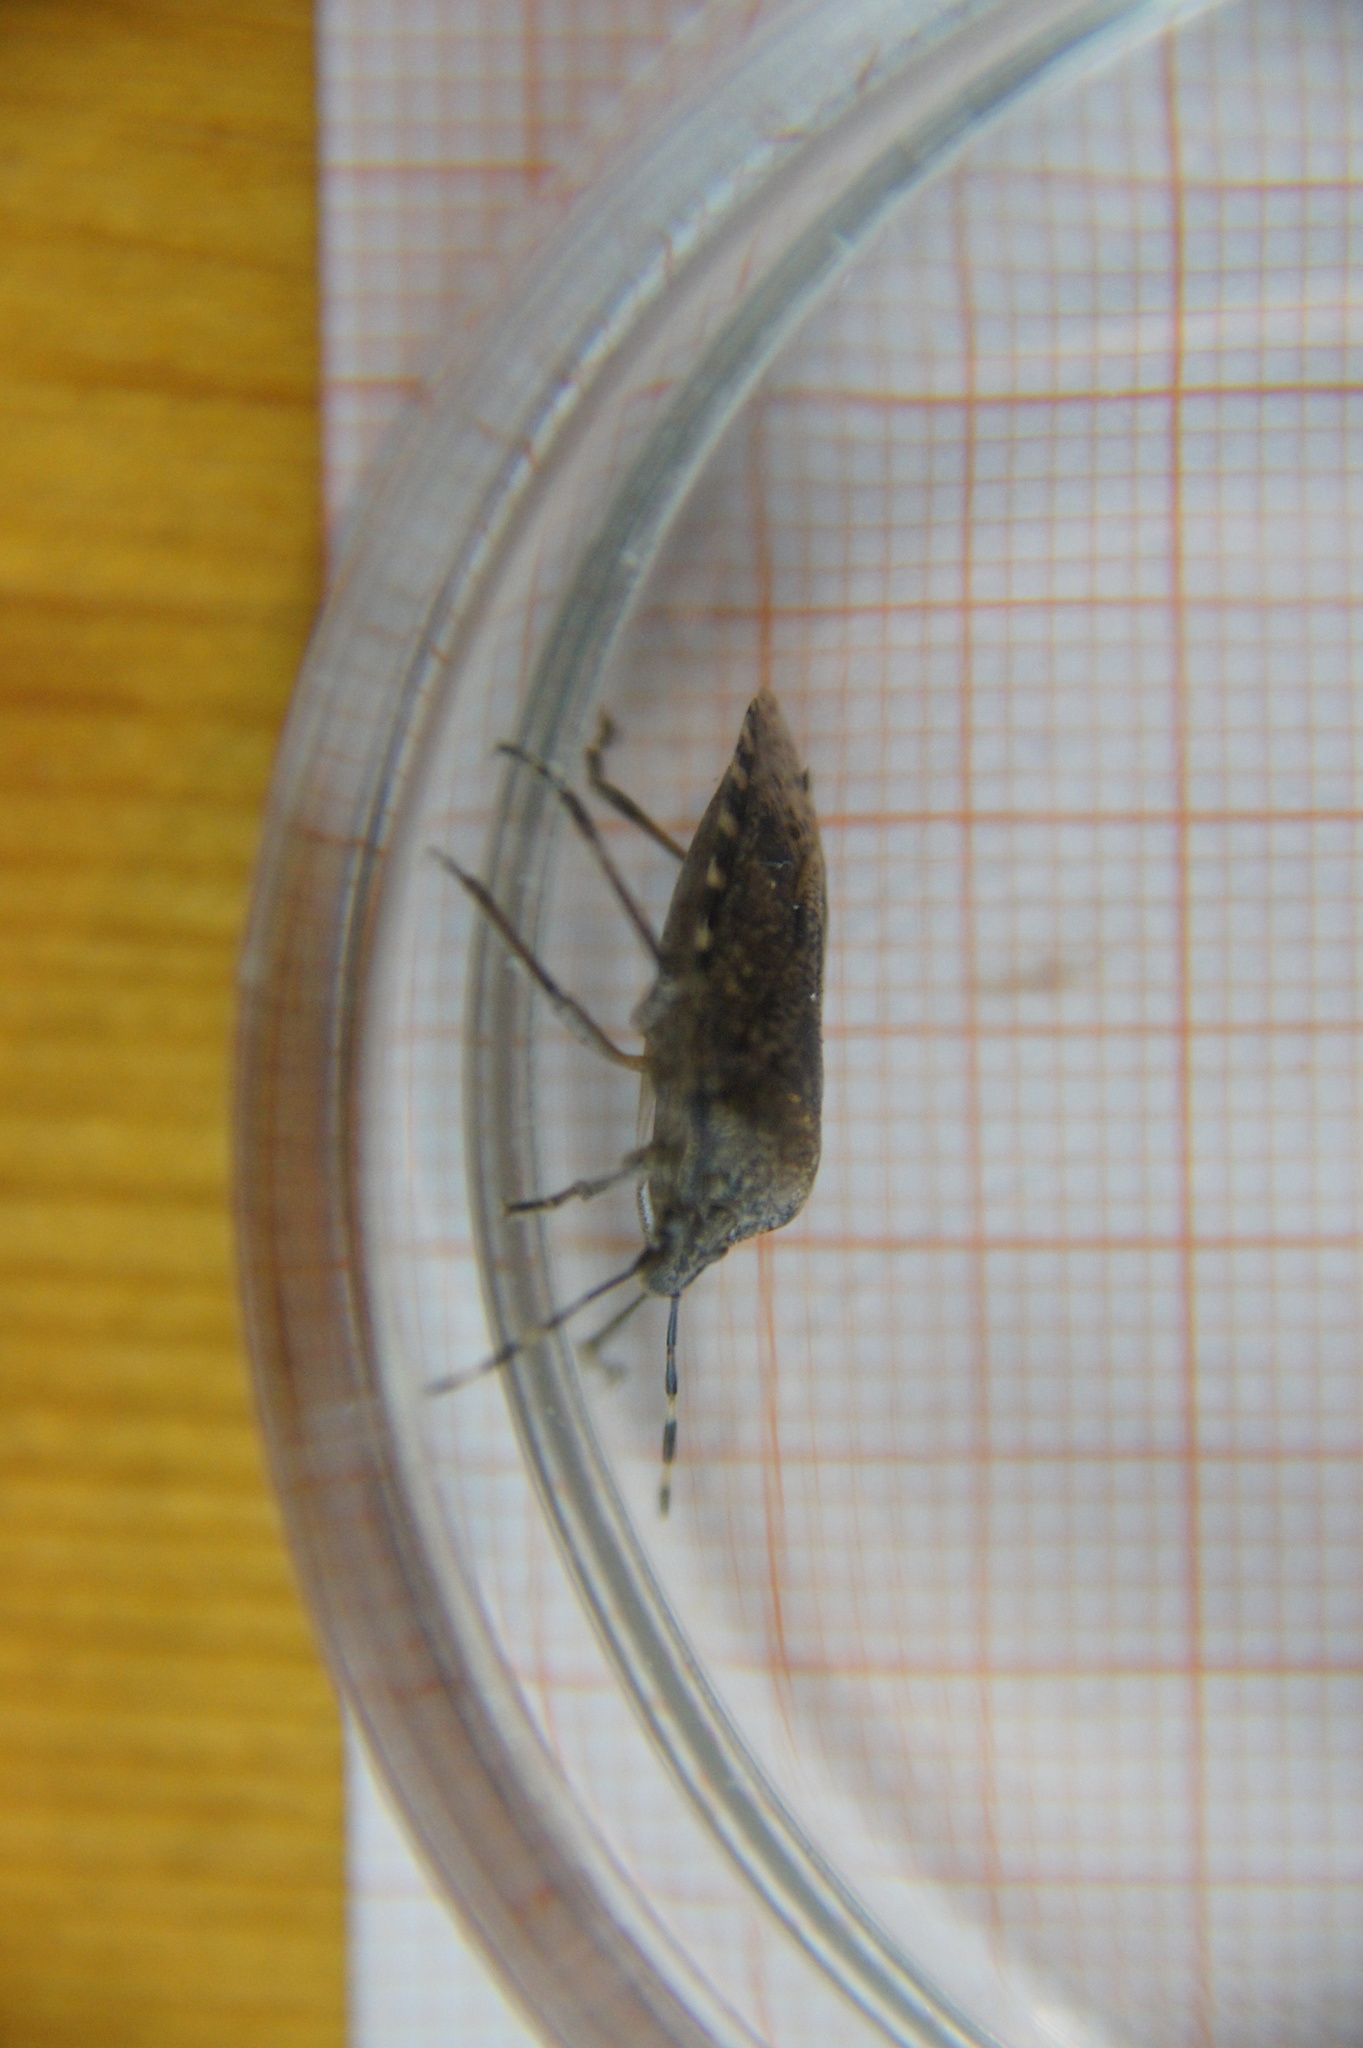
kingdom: Animalia
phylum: Arthropoda
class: Insecta
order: Hemiptera
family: Pentatomidae
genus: Rhaphigaster
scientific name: Rhaphigaster nebulosa
